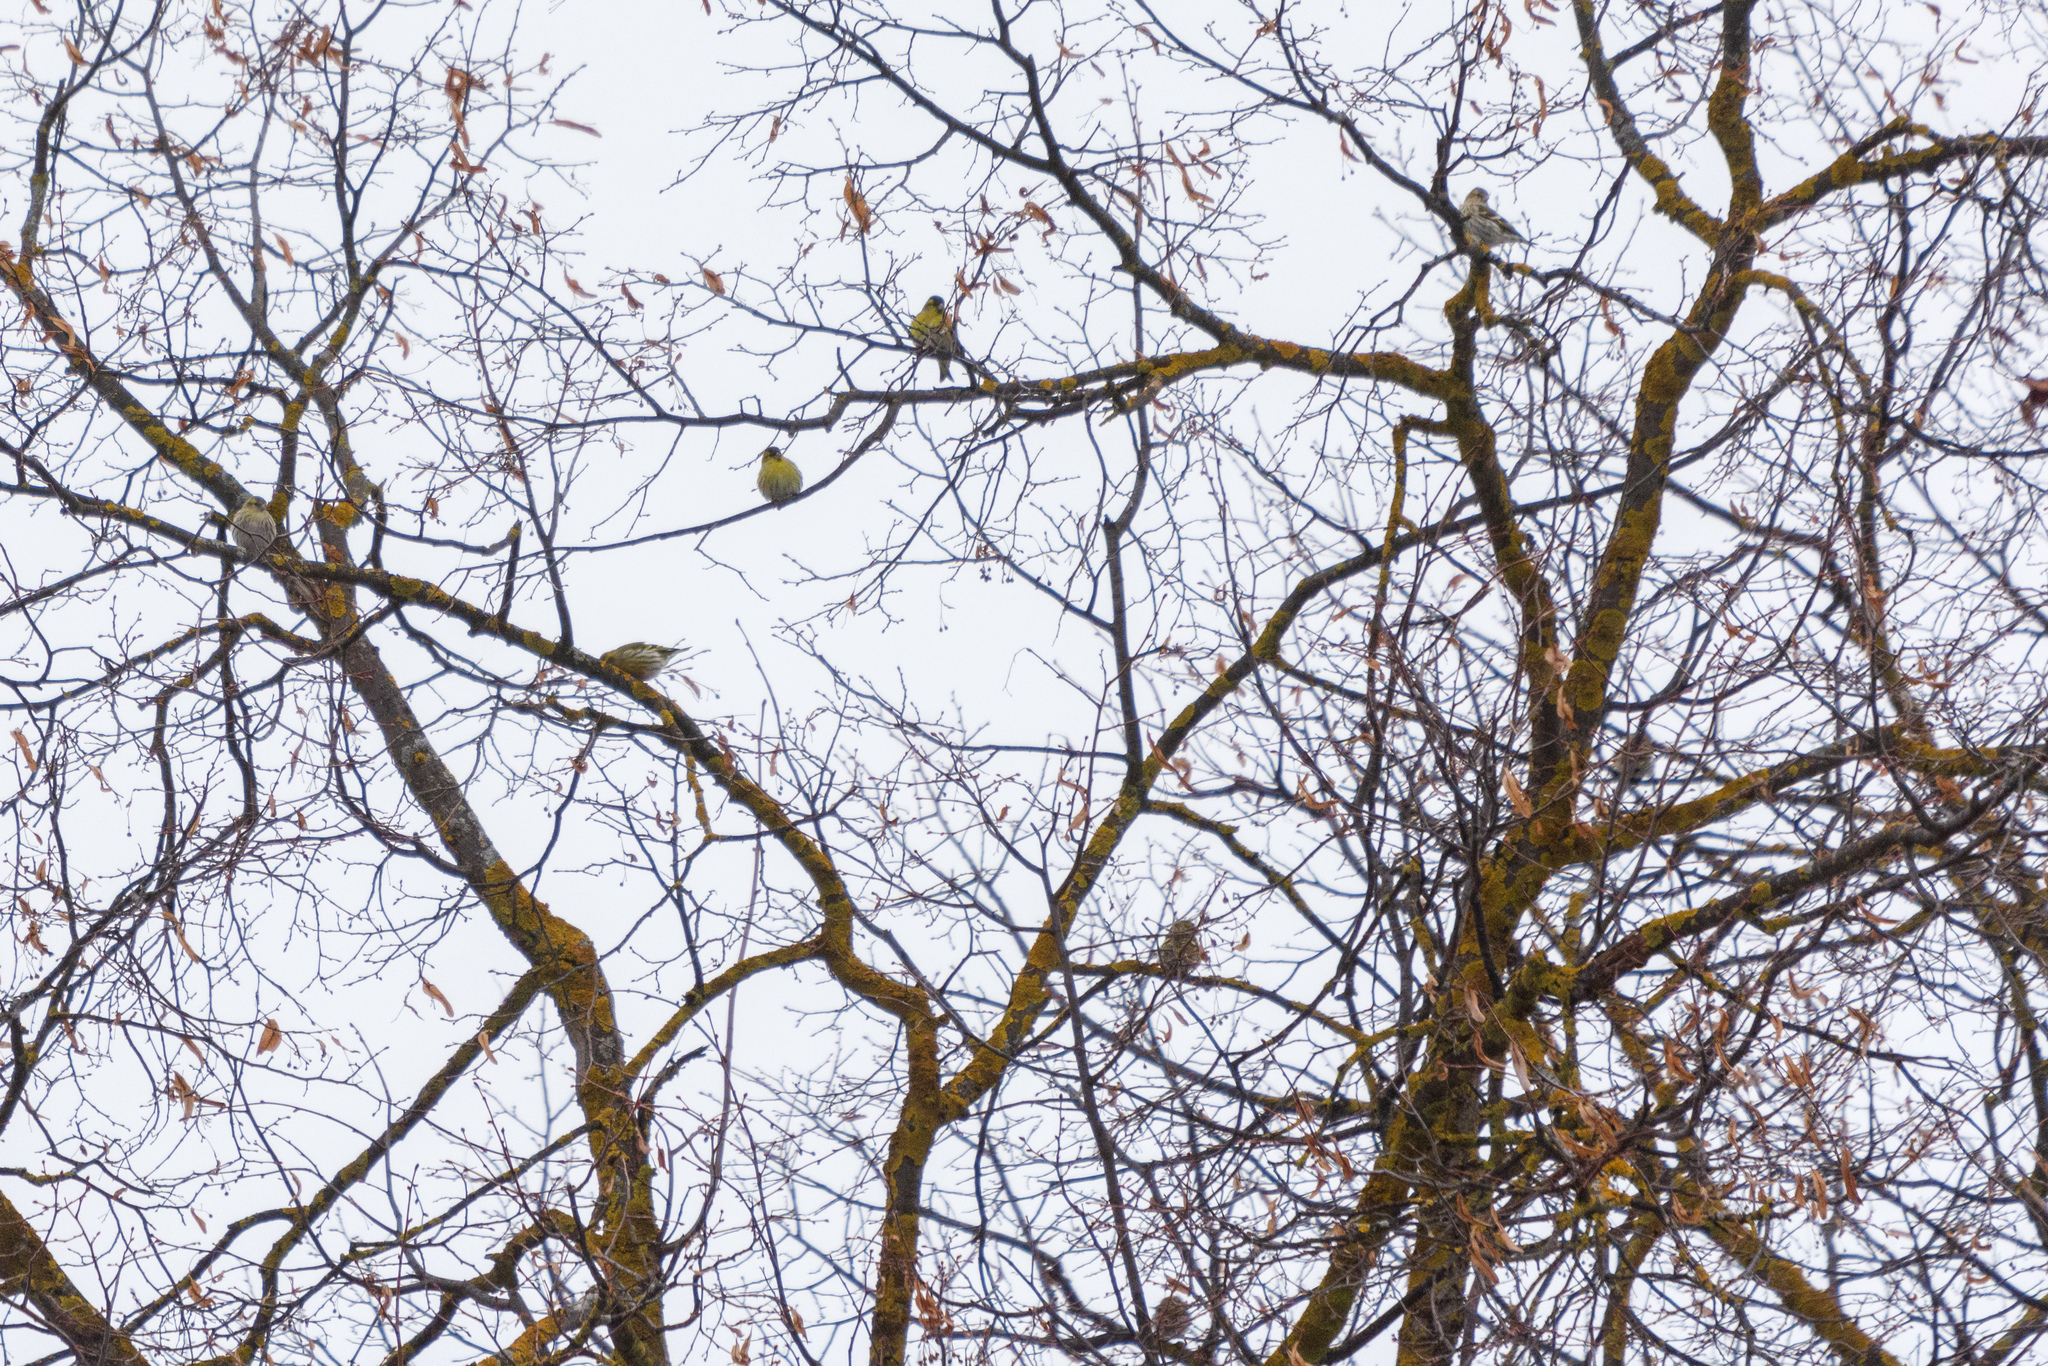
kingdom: Animalia
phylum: Chordata
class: Aves
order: Passeriformes
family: Fringillidae
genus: Spinus
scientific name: Spinus spinus
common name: Eurasian siskin
